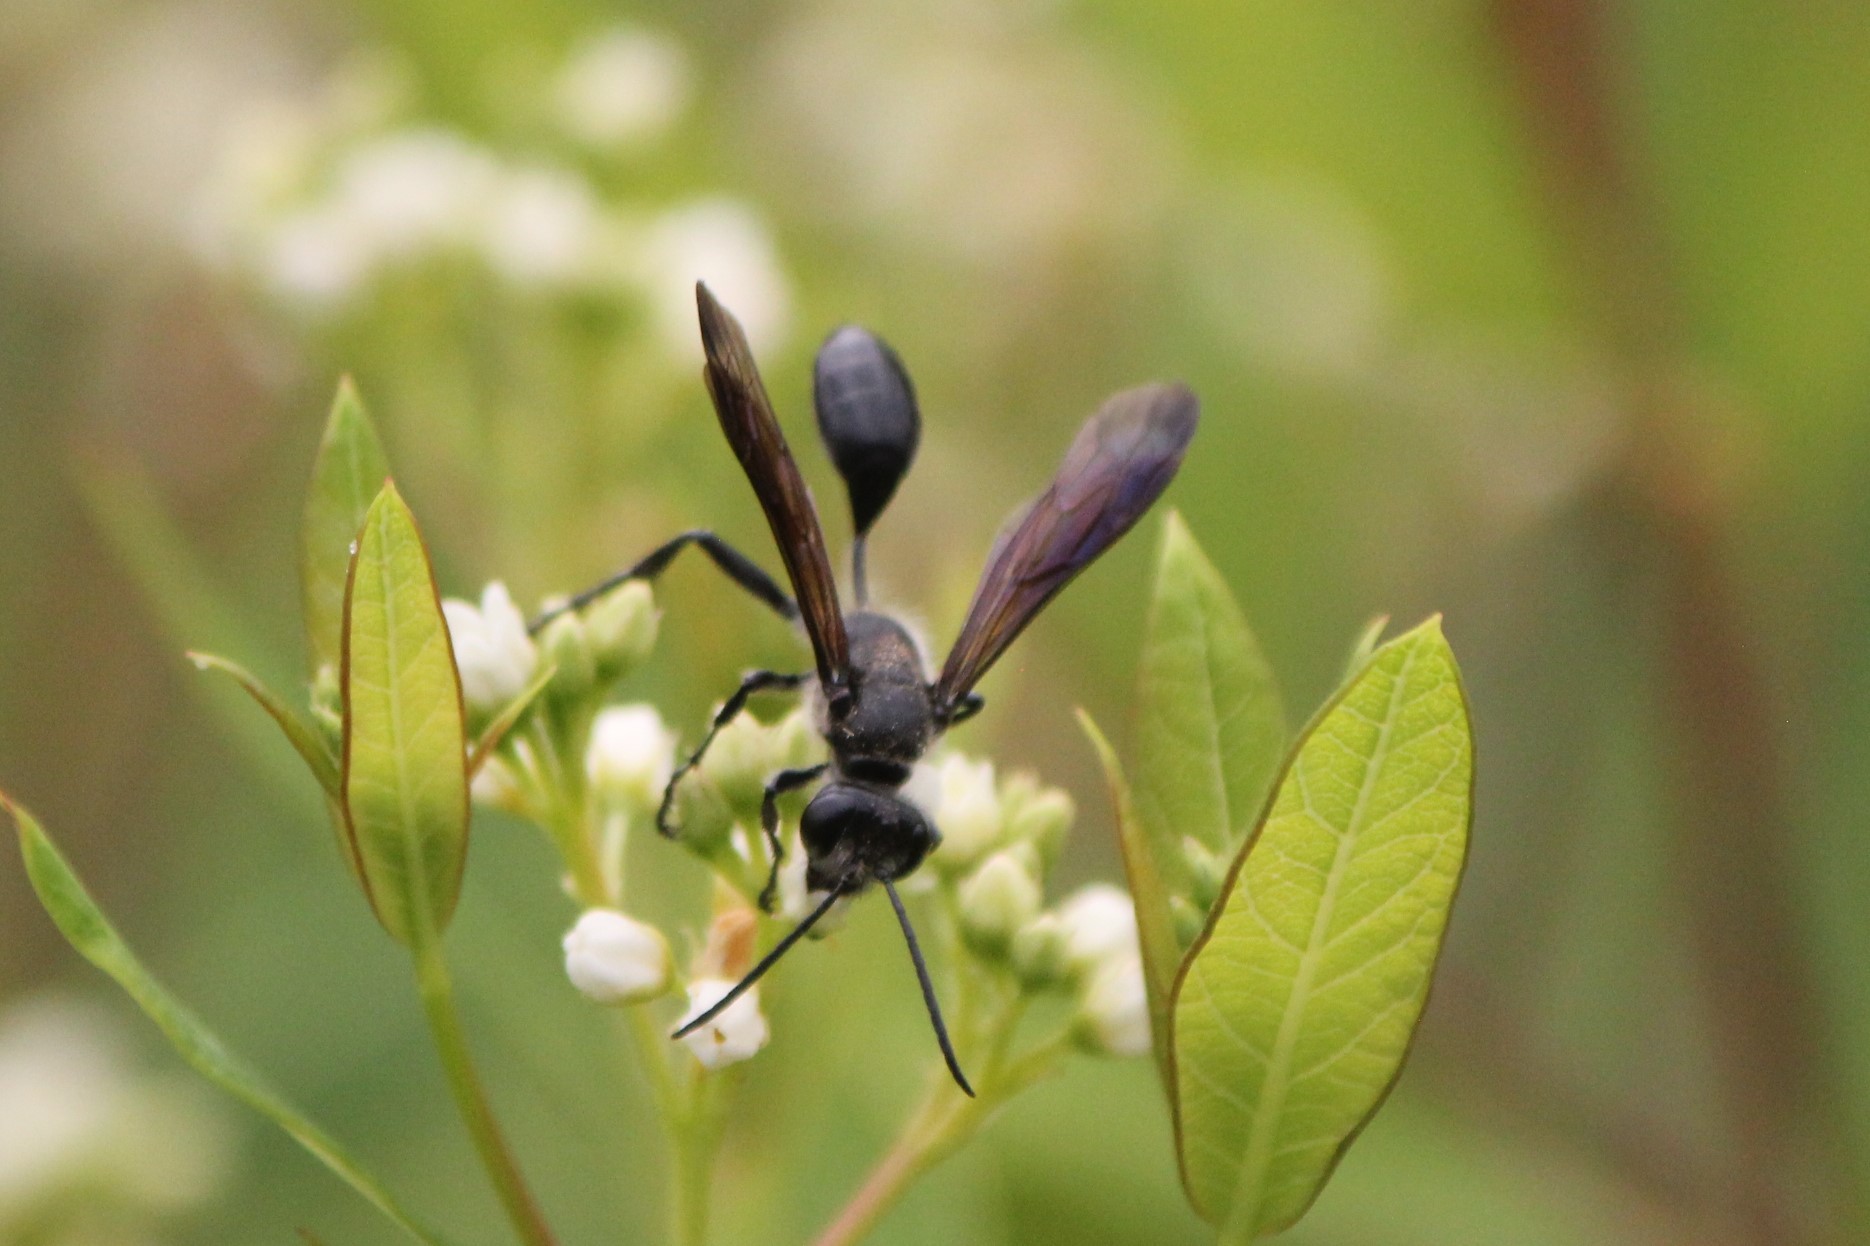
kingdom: Animalia
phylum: Arthropoda
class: Insecta
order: Hymenoptera
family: Sphecidae
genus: Isodontia
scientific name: Isodontia mexicana
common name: Mud dauber
